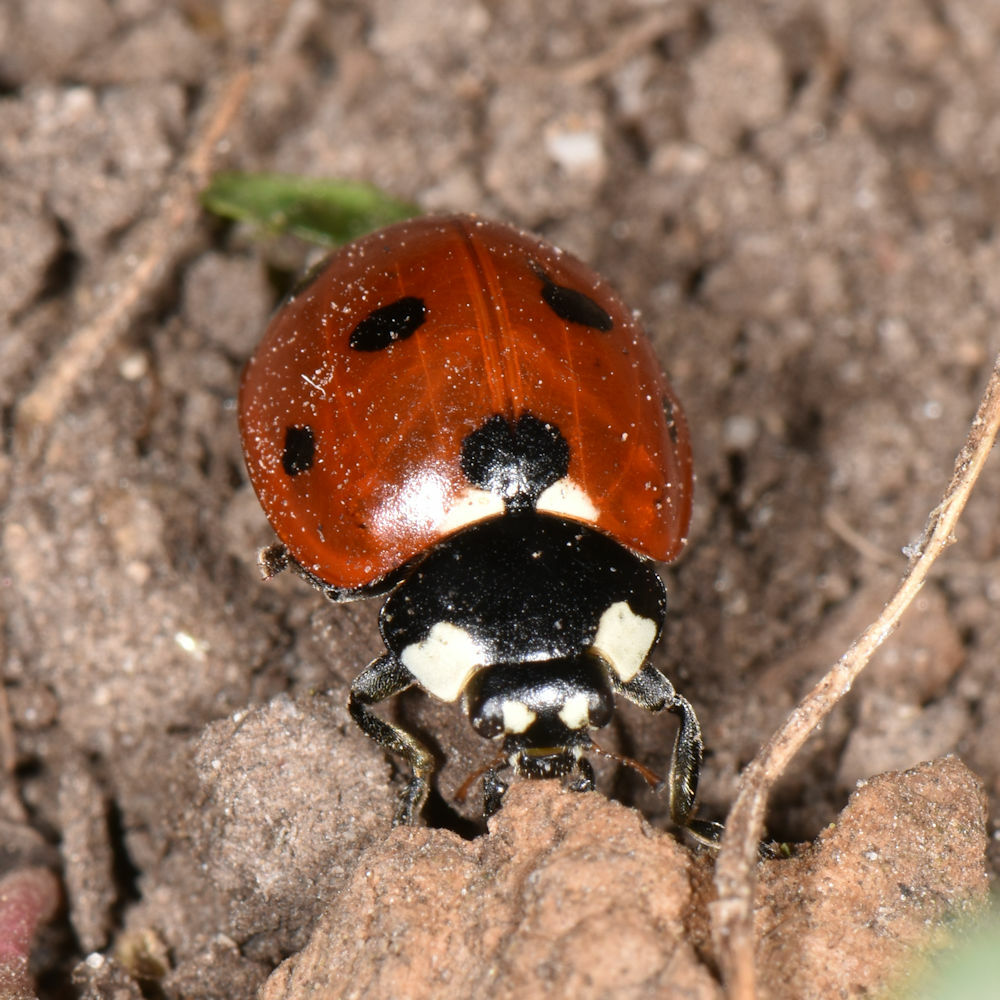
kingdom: Animalia
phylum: Arthropoda
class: Insecta
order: Coleoptera
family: Coccinellidae
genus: Coccinella
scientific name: Coccinella septempunctata
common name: Sevenspotted lady beetle
